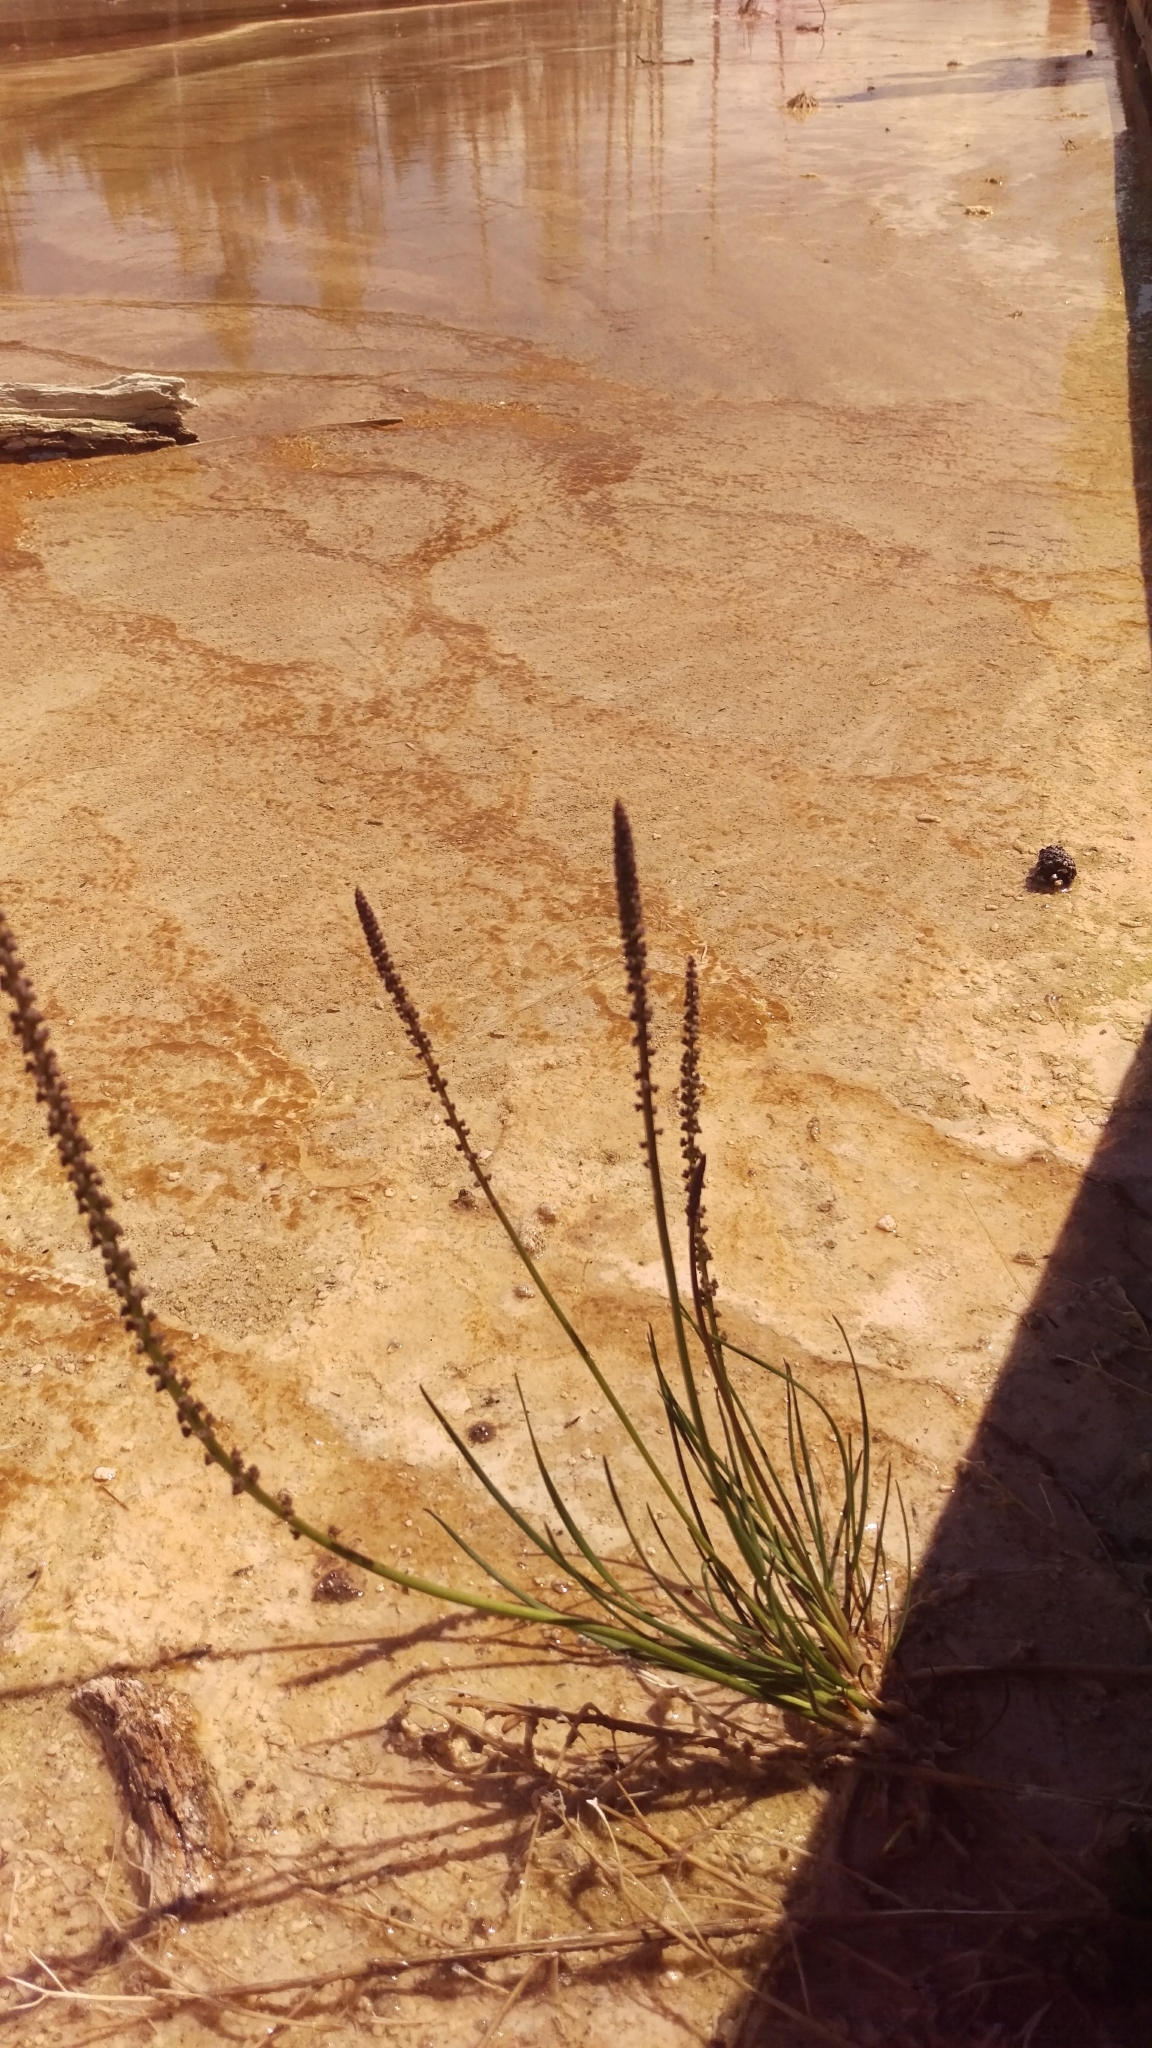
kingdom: Plantae
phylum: Tracheophyta
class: Liliopsida
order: Alismatales
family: Juncaginaceae
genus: Triglochin
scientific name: Triglochin maritima
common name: Sea arrowgrass
